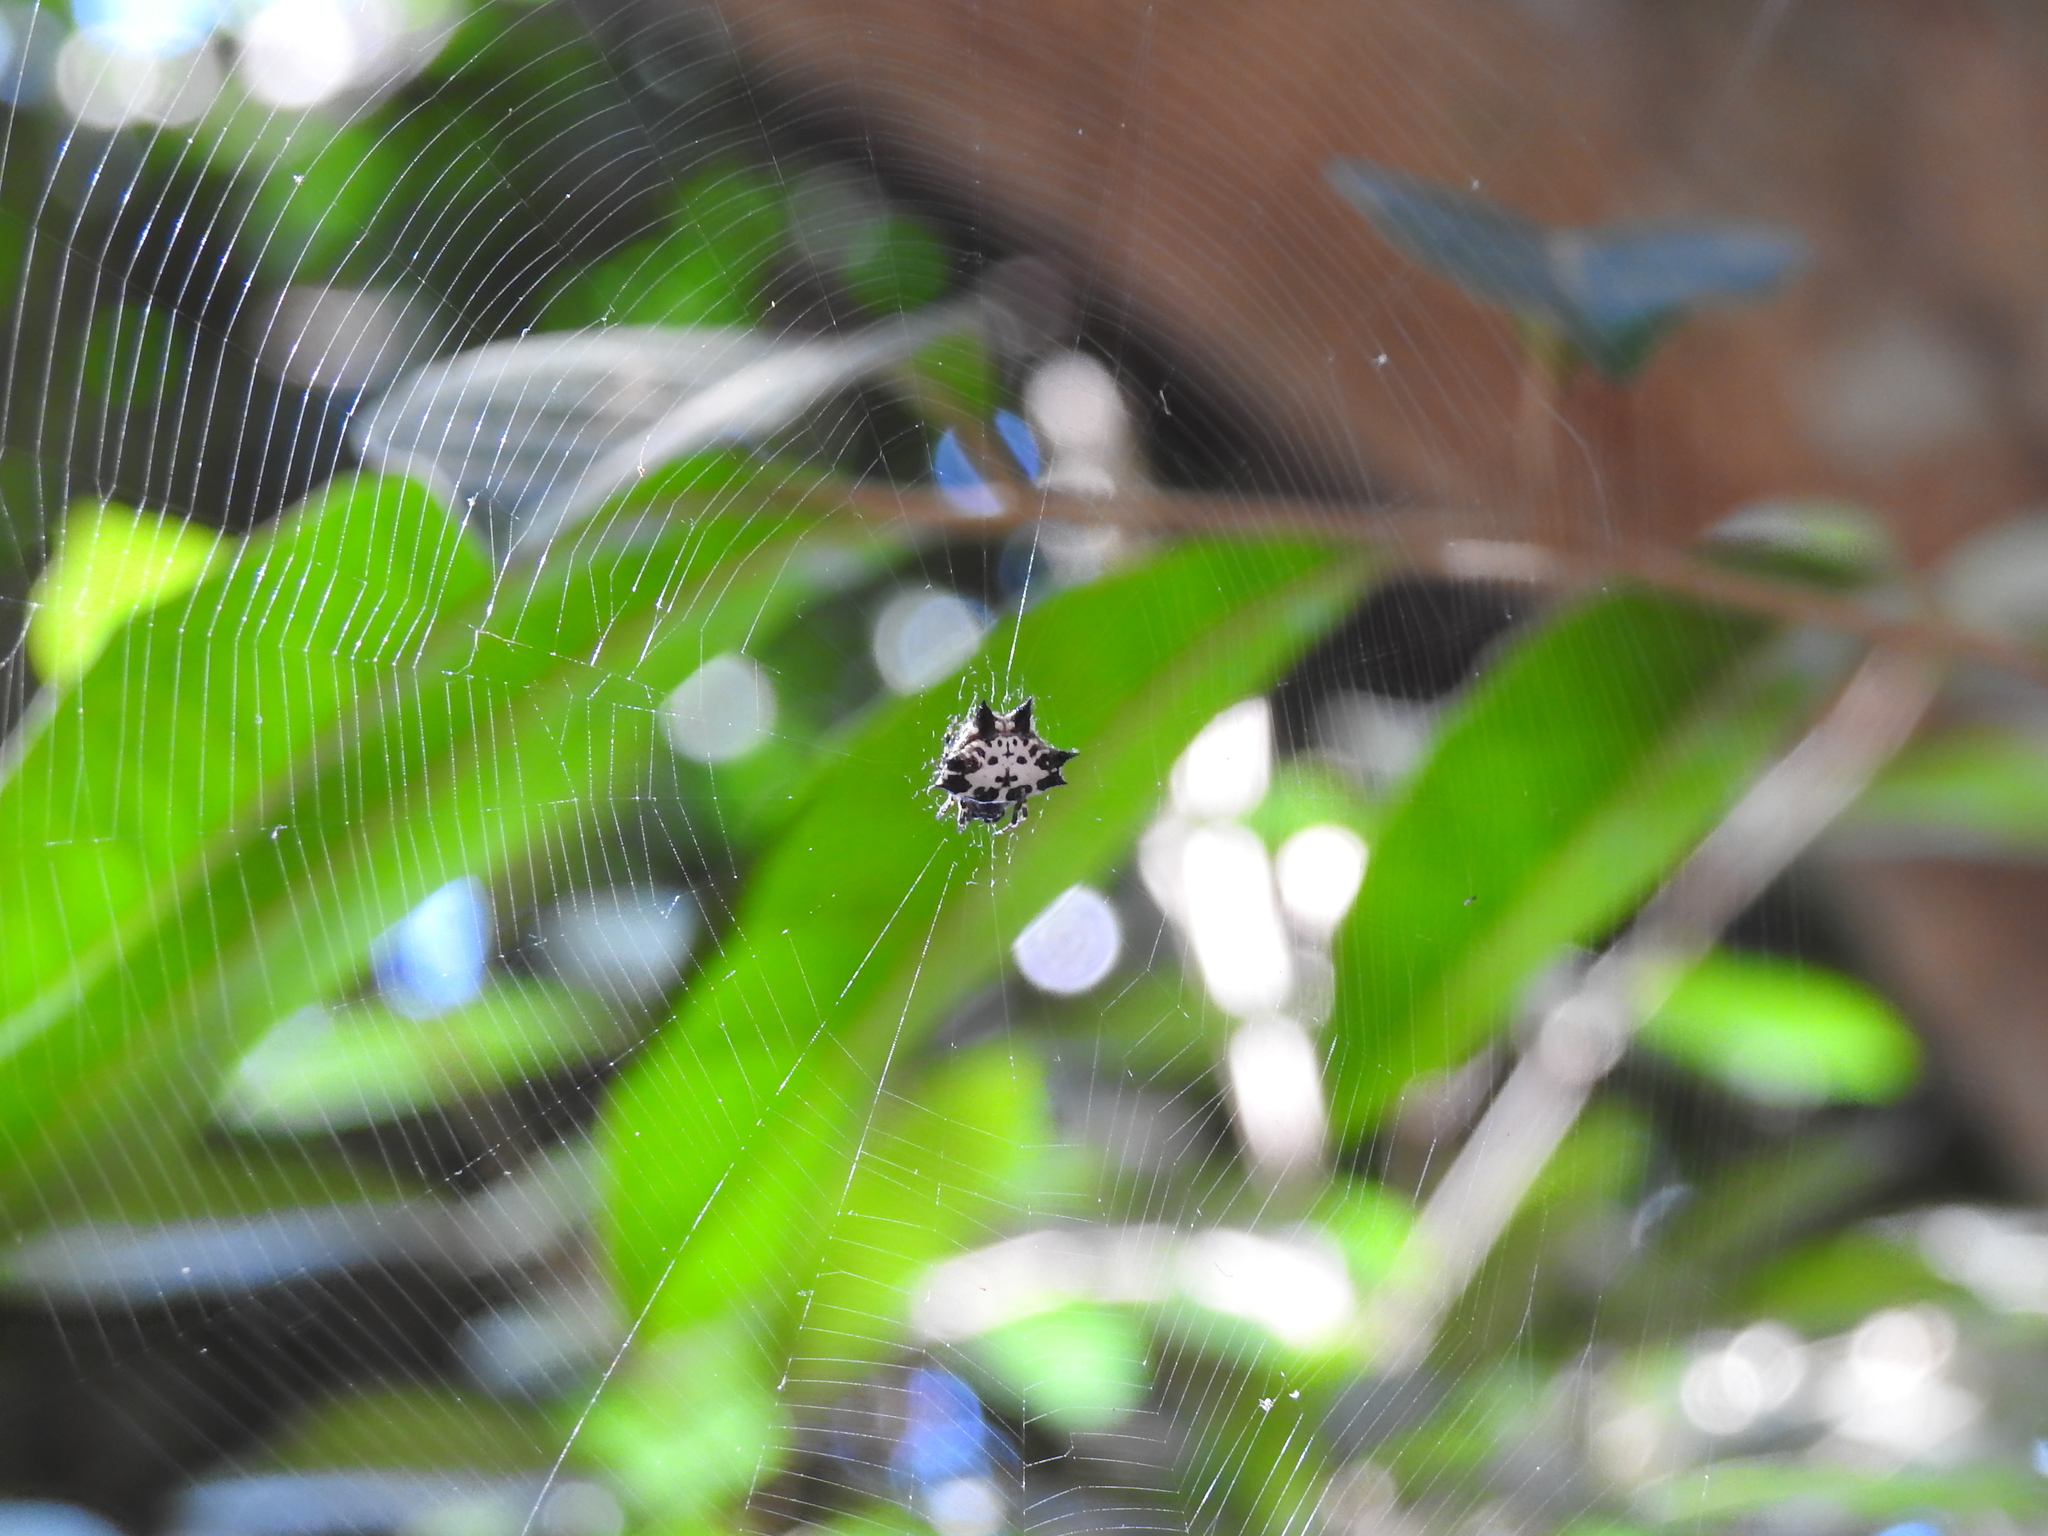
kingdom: Animalia
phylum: Arthropoda
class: Arachnida
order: Araneae
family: Araneidae
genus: Gasteracantha
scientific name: Gasteracantha kuhli
